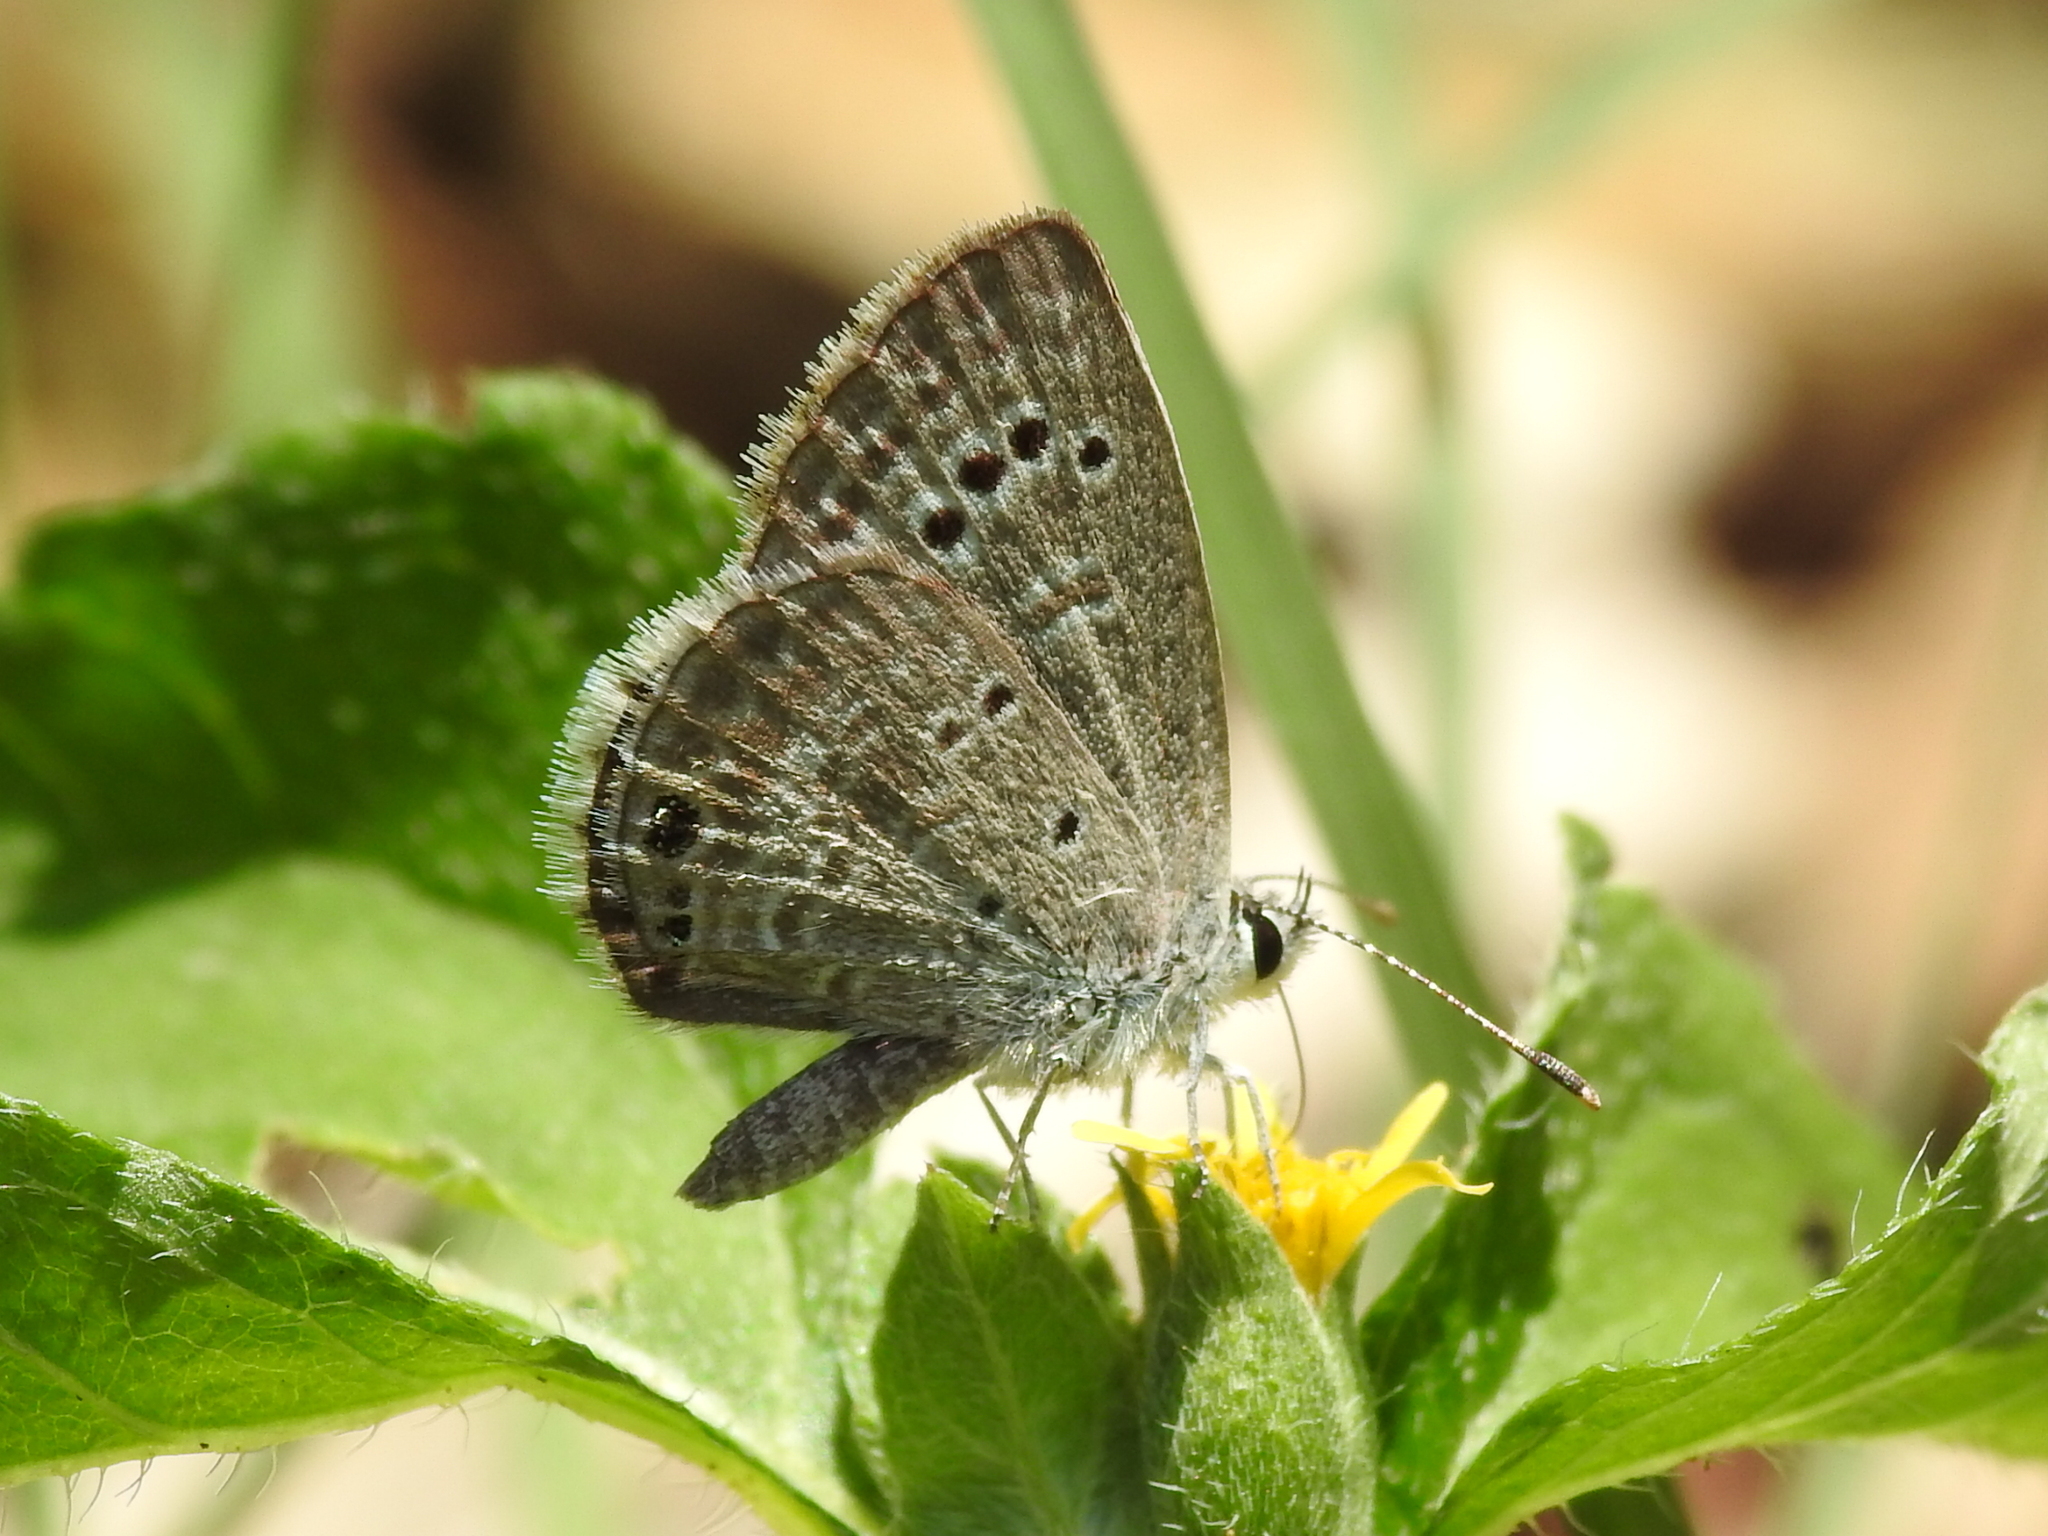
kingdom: Animalia
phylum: Arthropoda
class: Insecta
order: Lepidoptera
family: Lycaenidae
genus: Echinargus
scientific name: Echinargus isola
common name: Reakirt's blue
